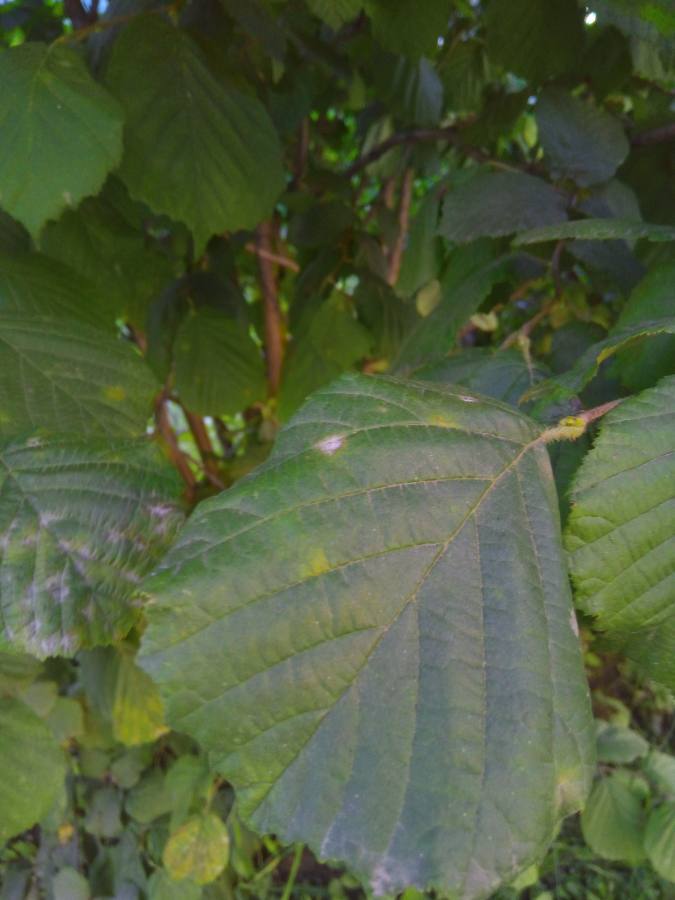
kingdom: Plantae
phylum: Tracheophyta
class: Magnoliopsida
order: Fagales
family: Betulaceae
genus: Corylus
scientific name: Corylus avellana
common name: European hazel
